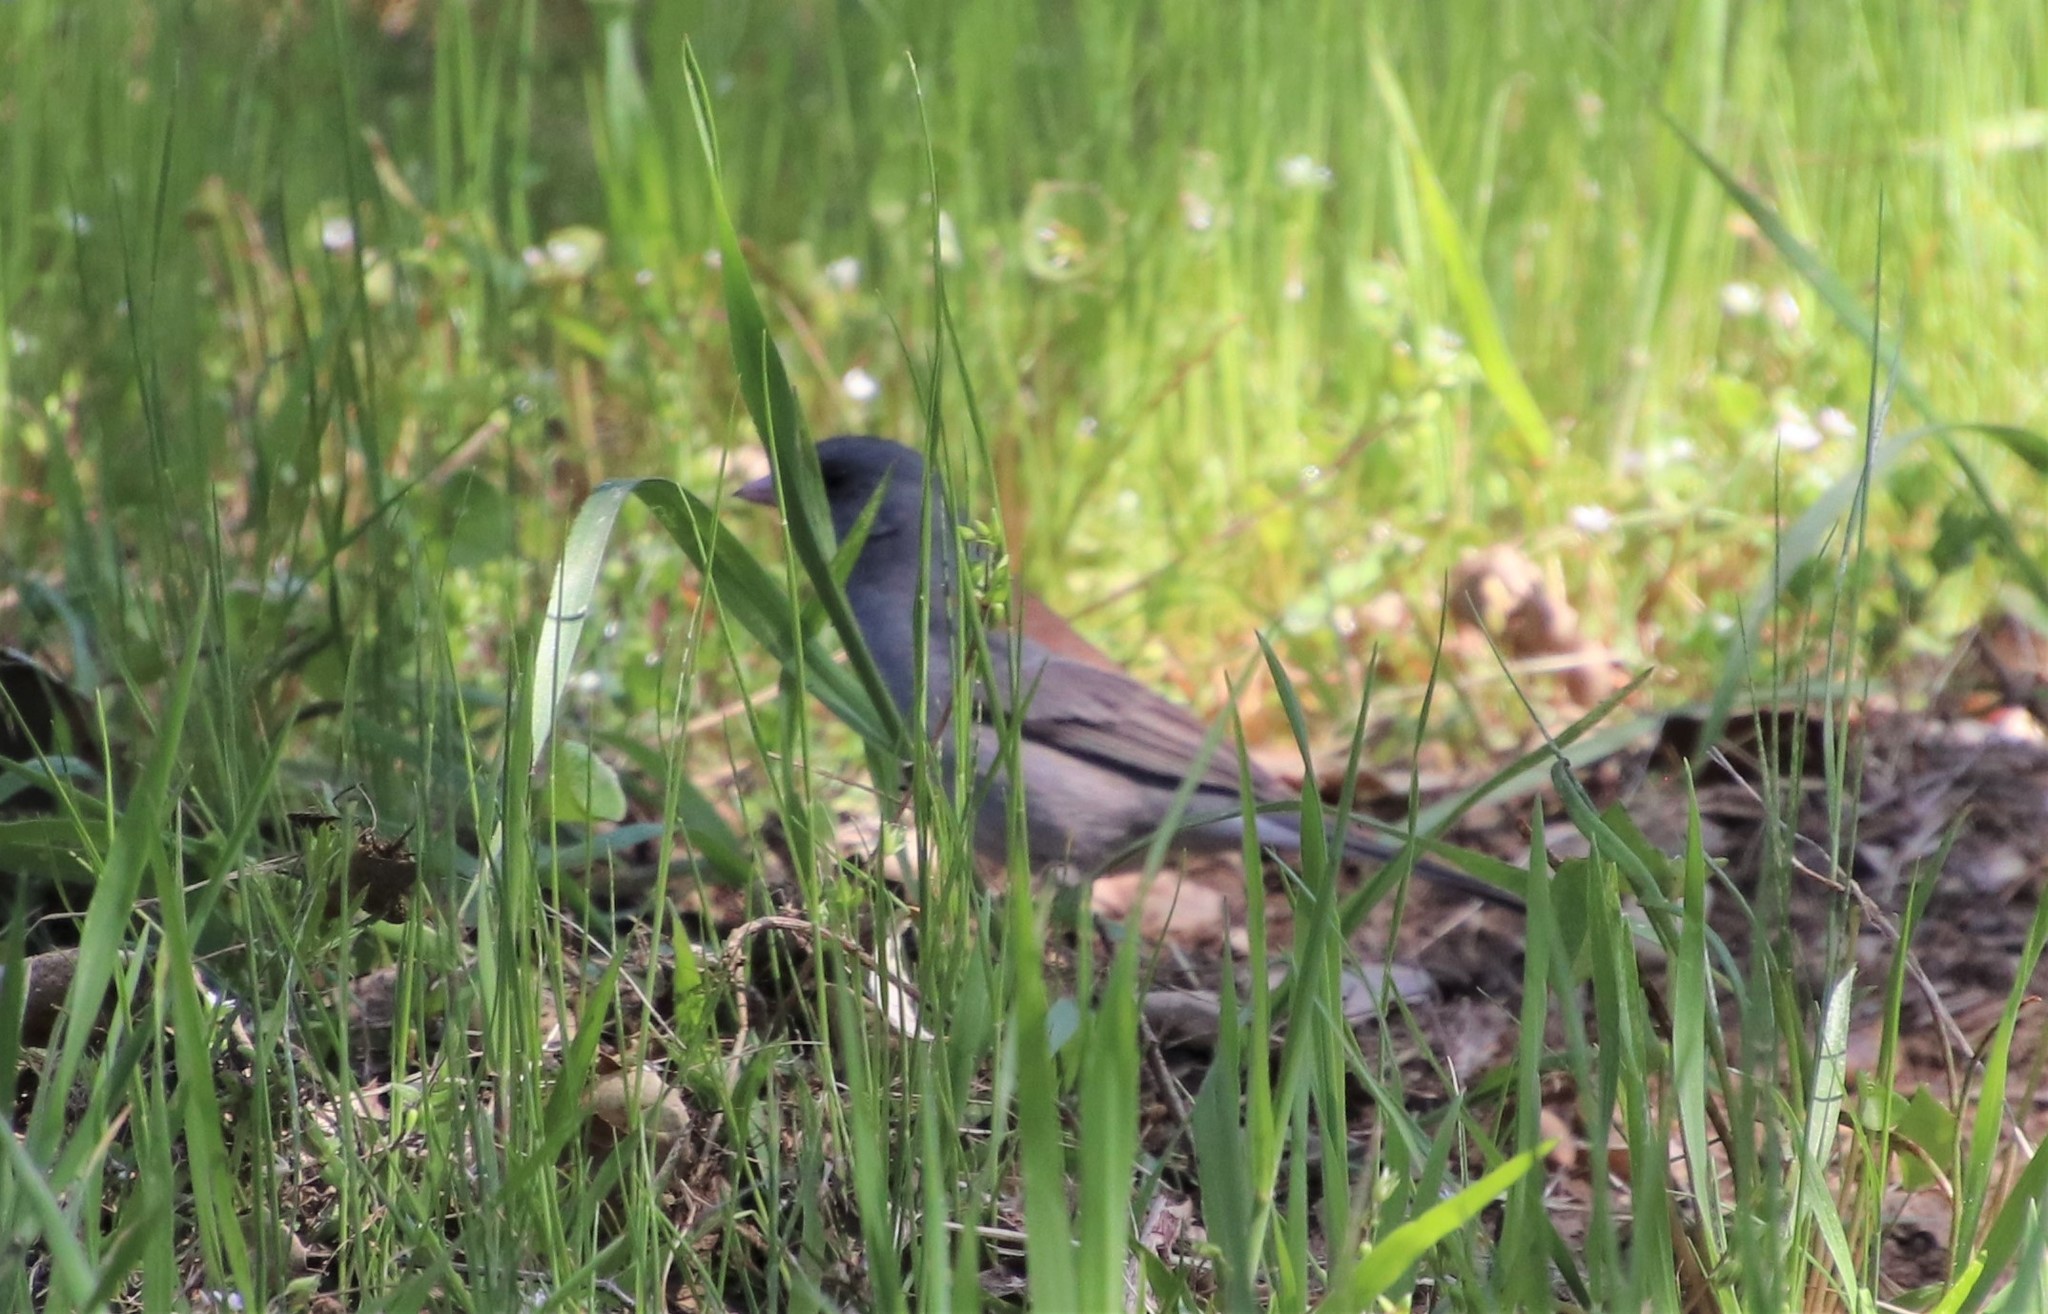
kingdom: Animalia
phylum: Chordata
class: Aves
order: Passeriformes
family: Passerellidae
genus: Junco
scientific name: Junco hyemalis
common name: Dark-eyed junco
